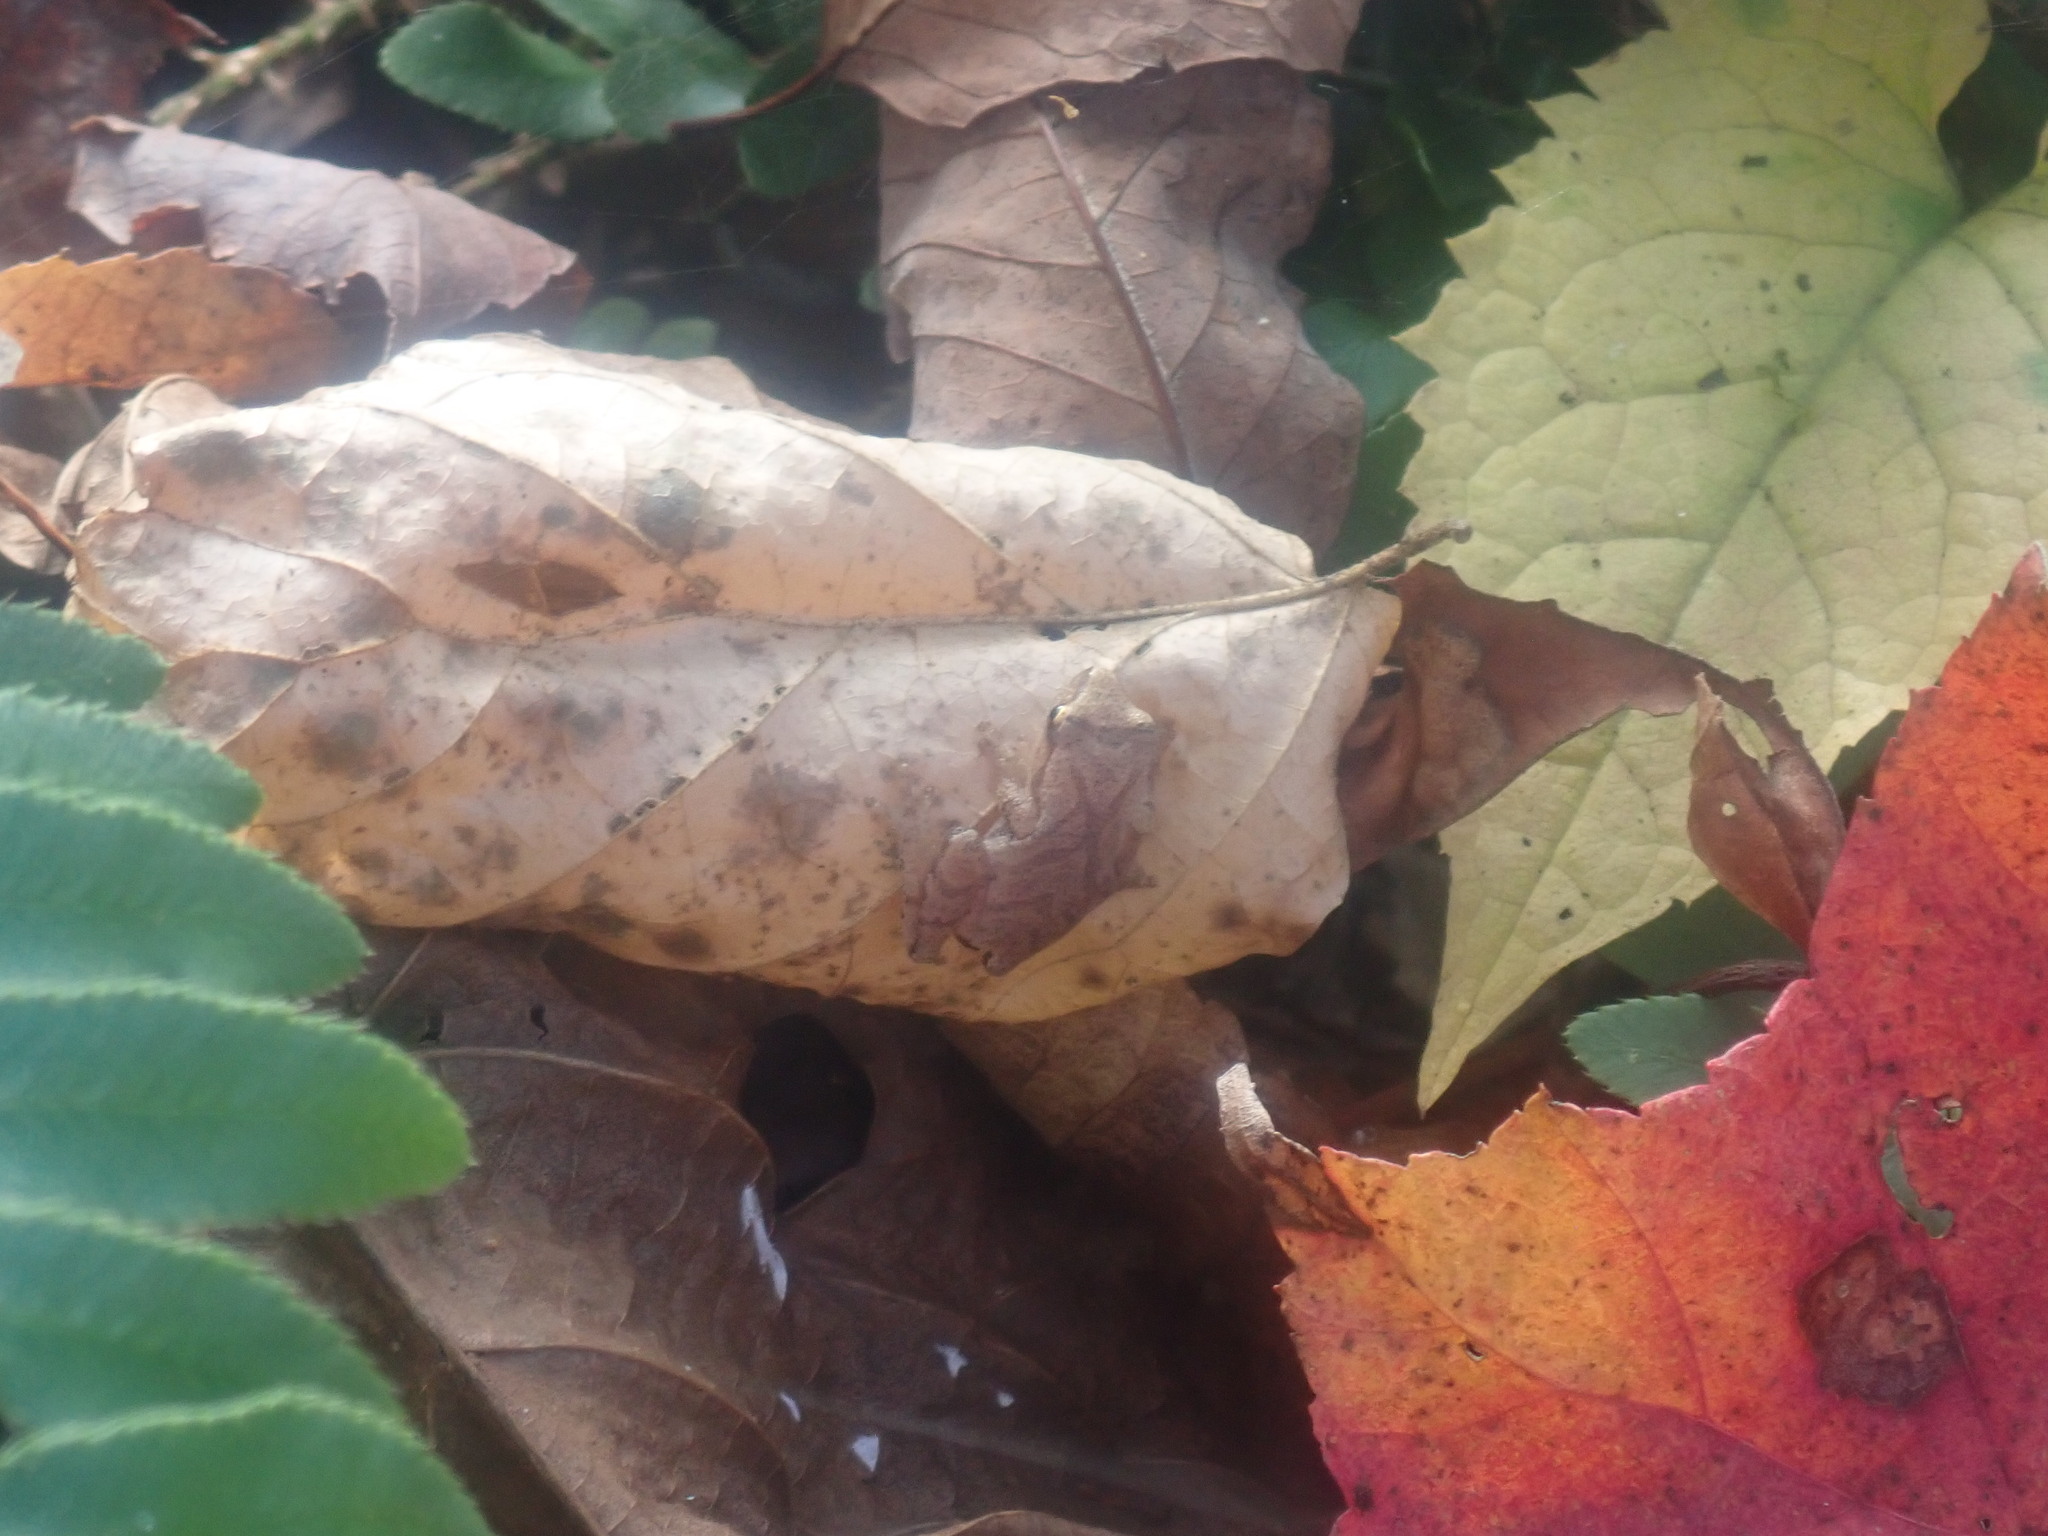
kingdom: Animalia
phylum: Chordata
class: Amphibia
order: Anura
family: Hylidae
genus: Pseudacris
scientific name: Pseudacris crucifer
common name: Spring peeper
